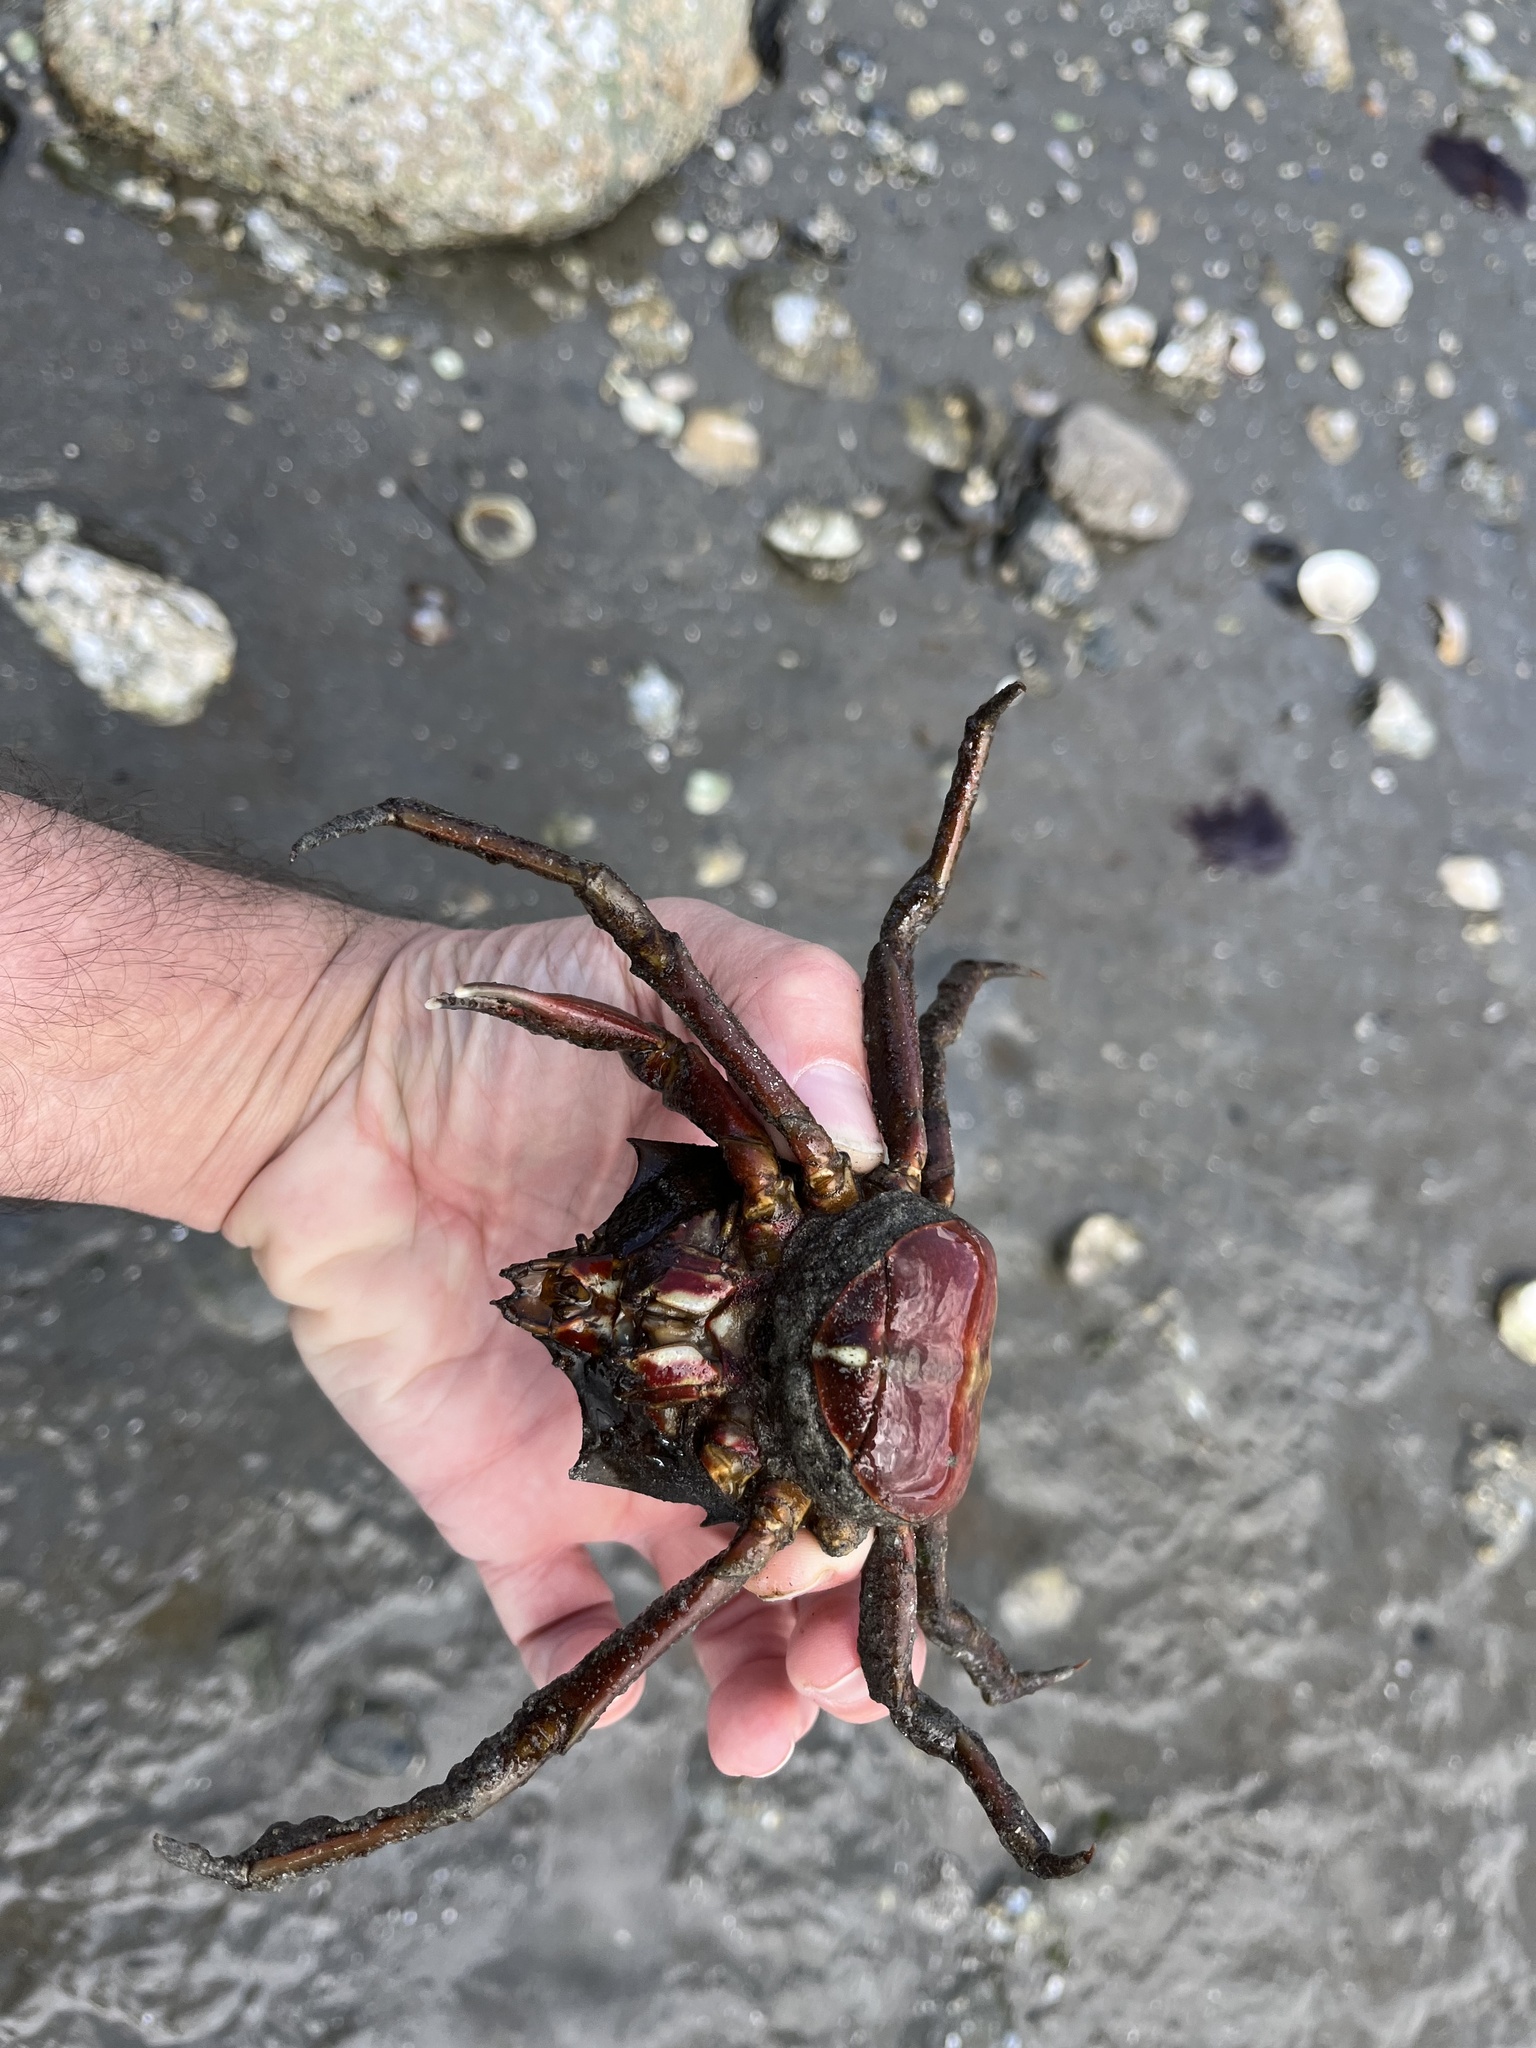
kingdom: Animalia
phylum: Arthropoda
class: Malacostraca
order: Decapoda
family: Epialtidae
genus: Pugettia
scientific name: Pugettia producta
